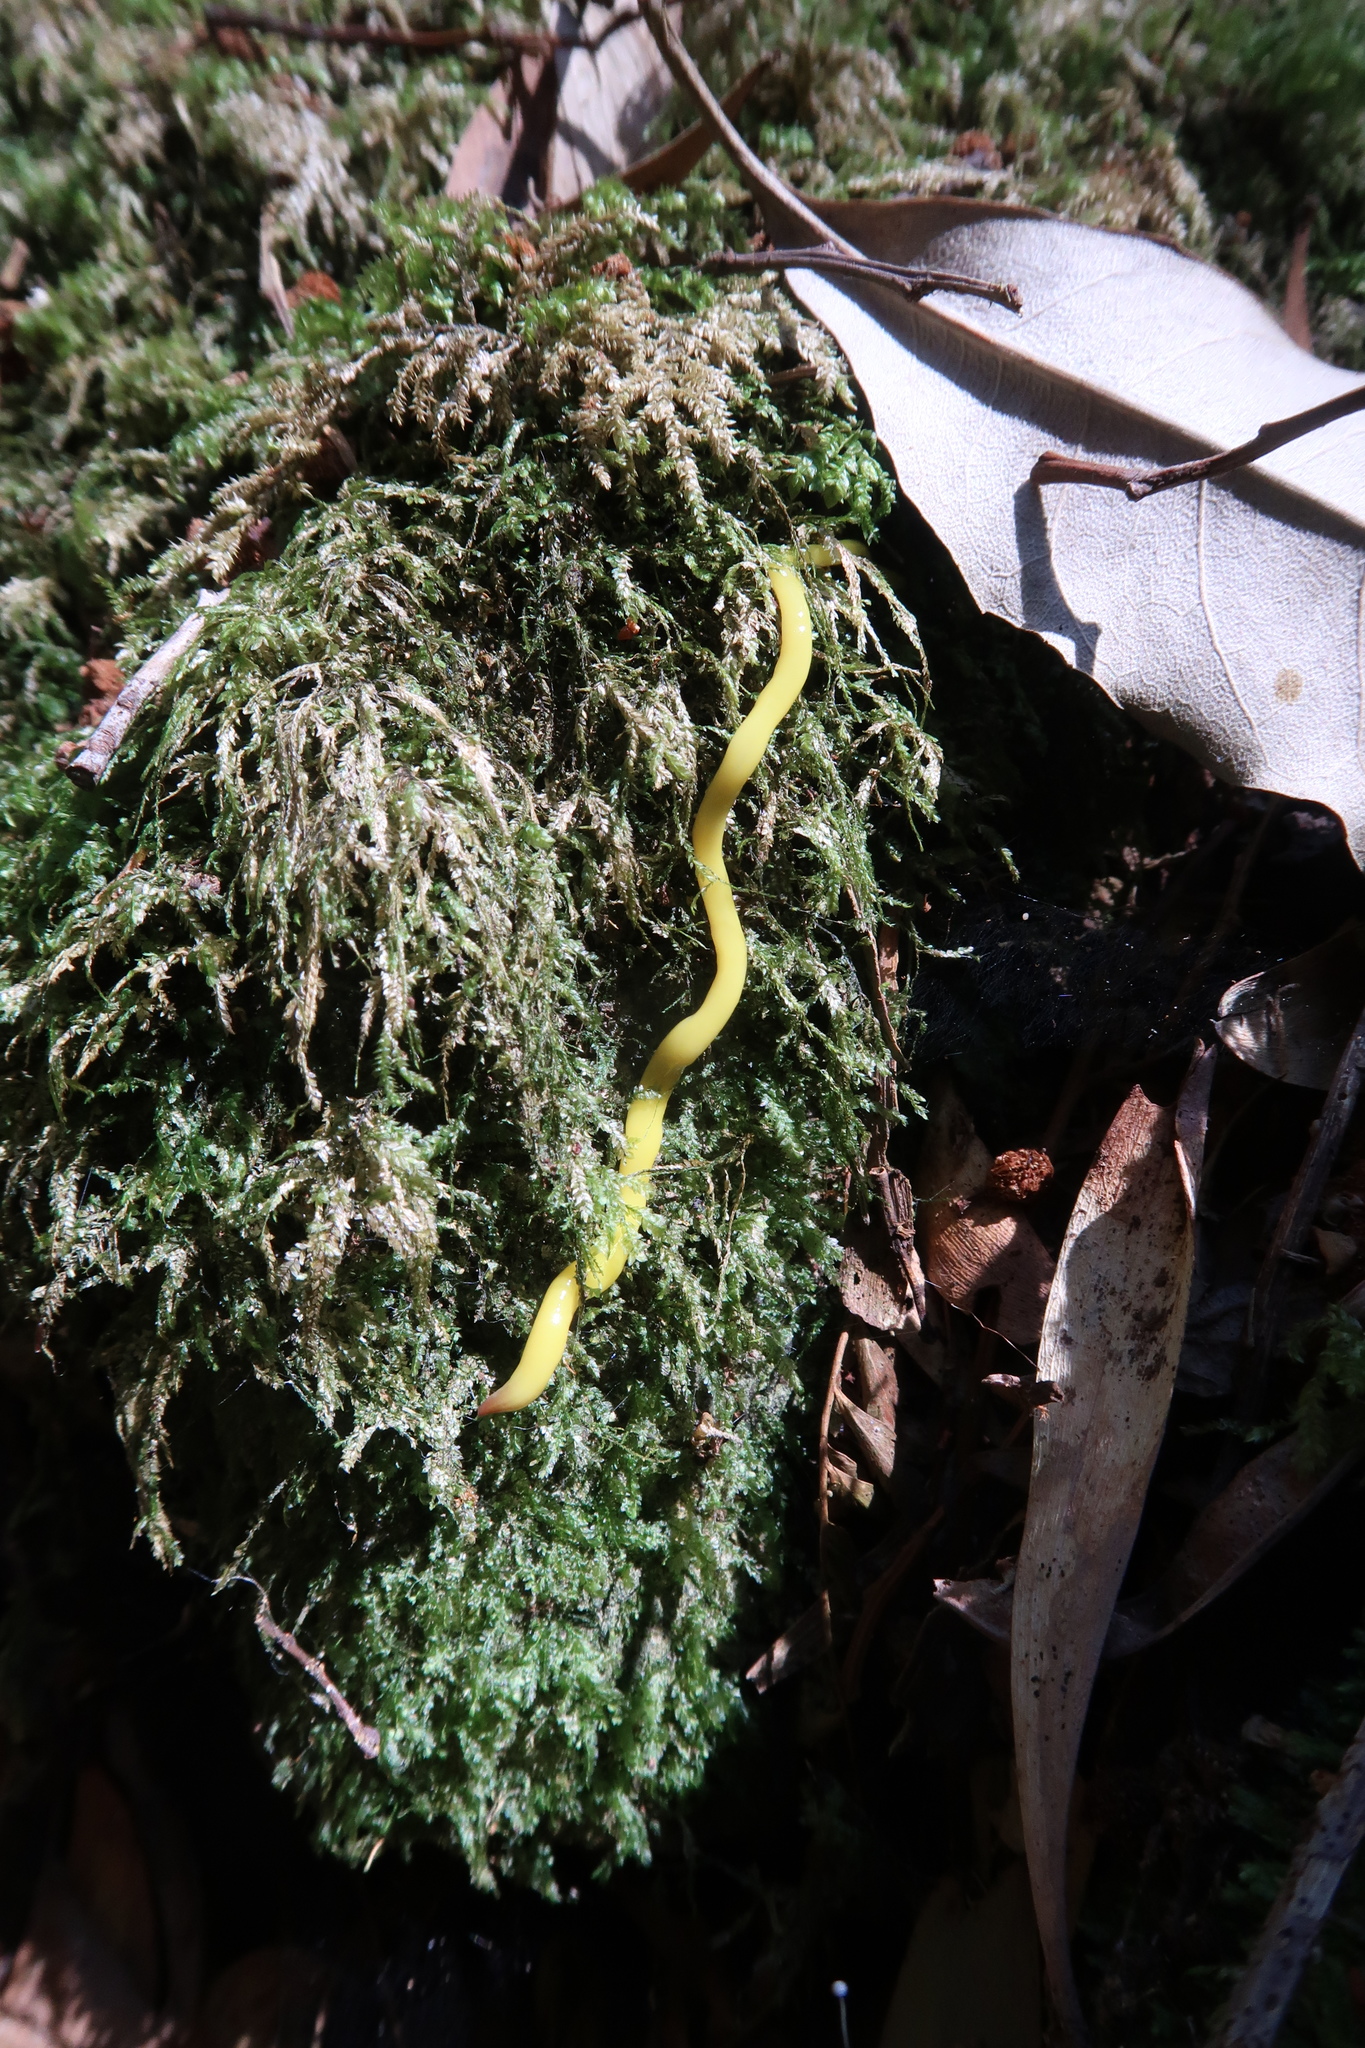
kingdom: Animalia
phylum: Platyhelminthes
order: Tricladida
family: Geoplanidae
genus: Fletchamia
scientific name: Fletchamia sugdeni
